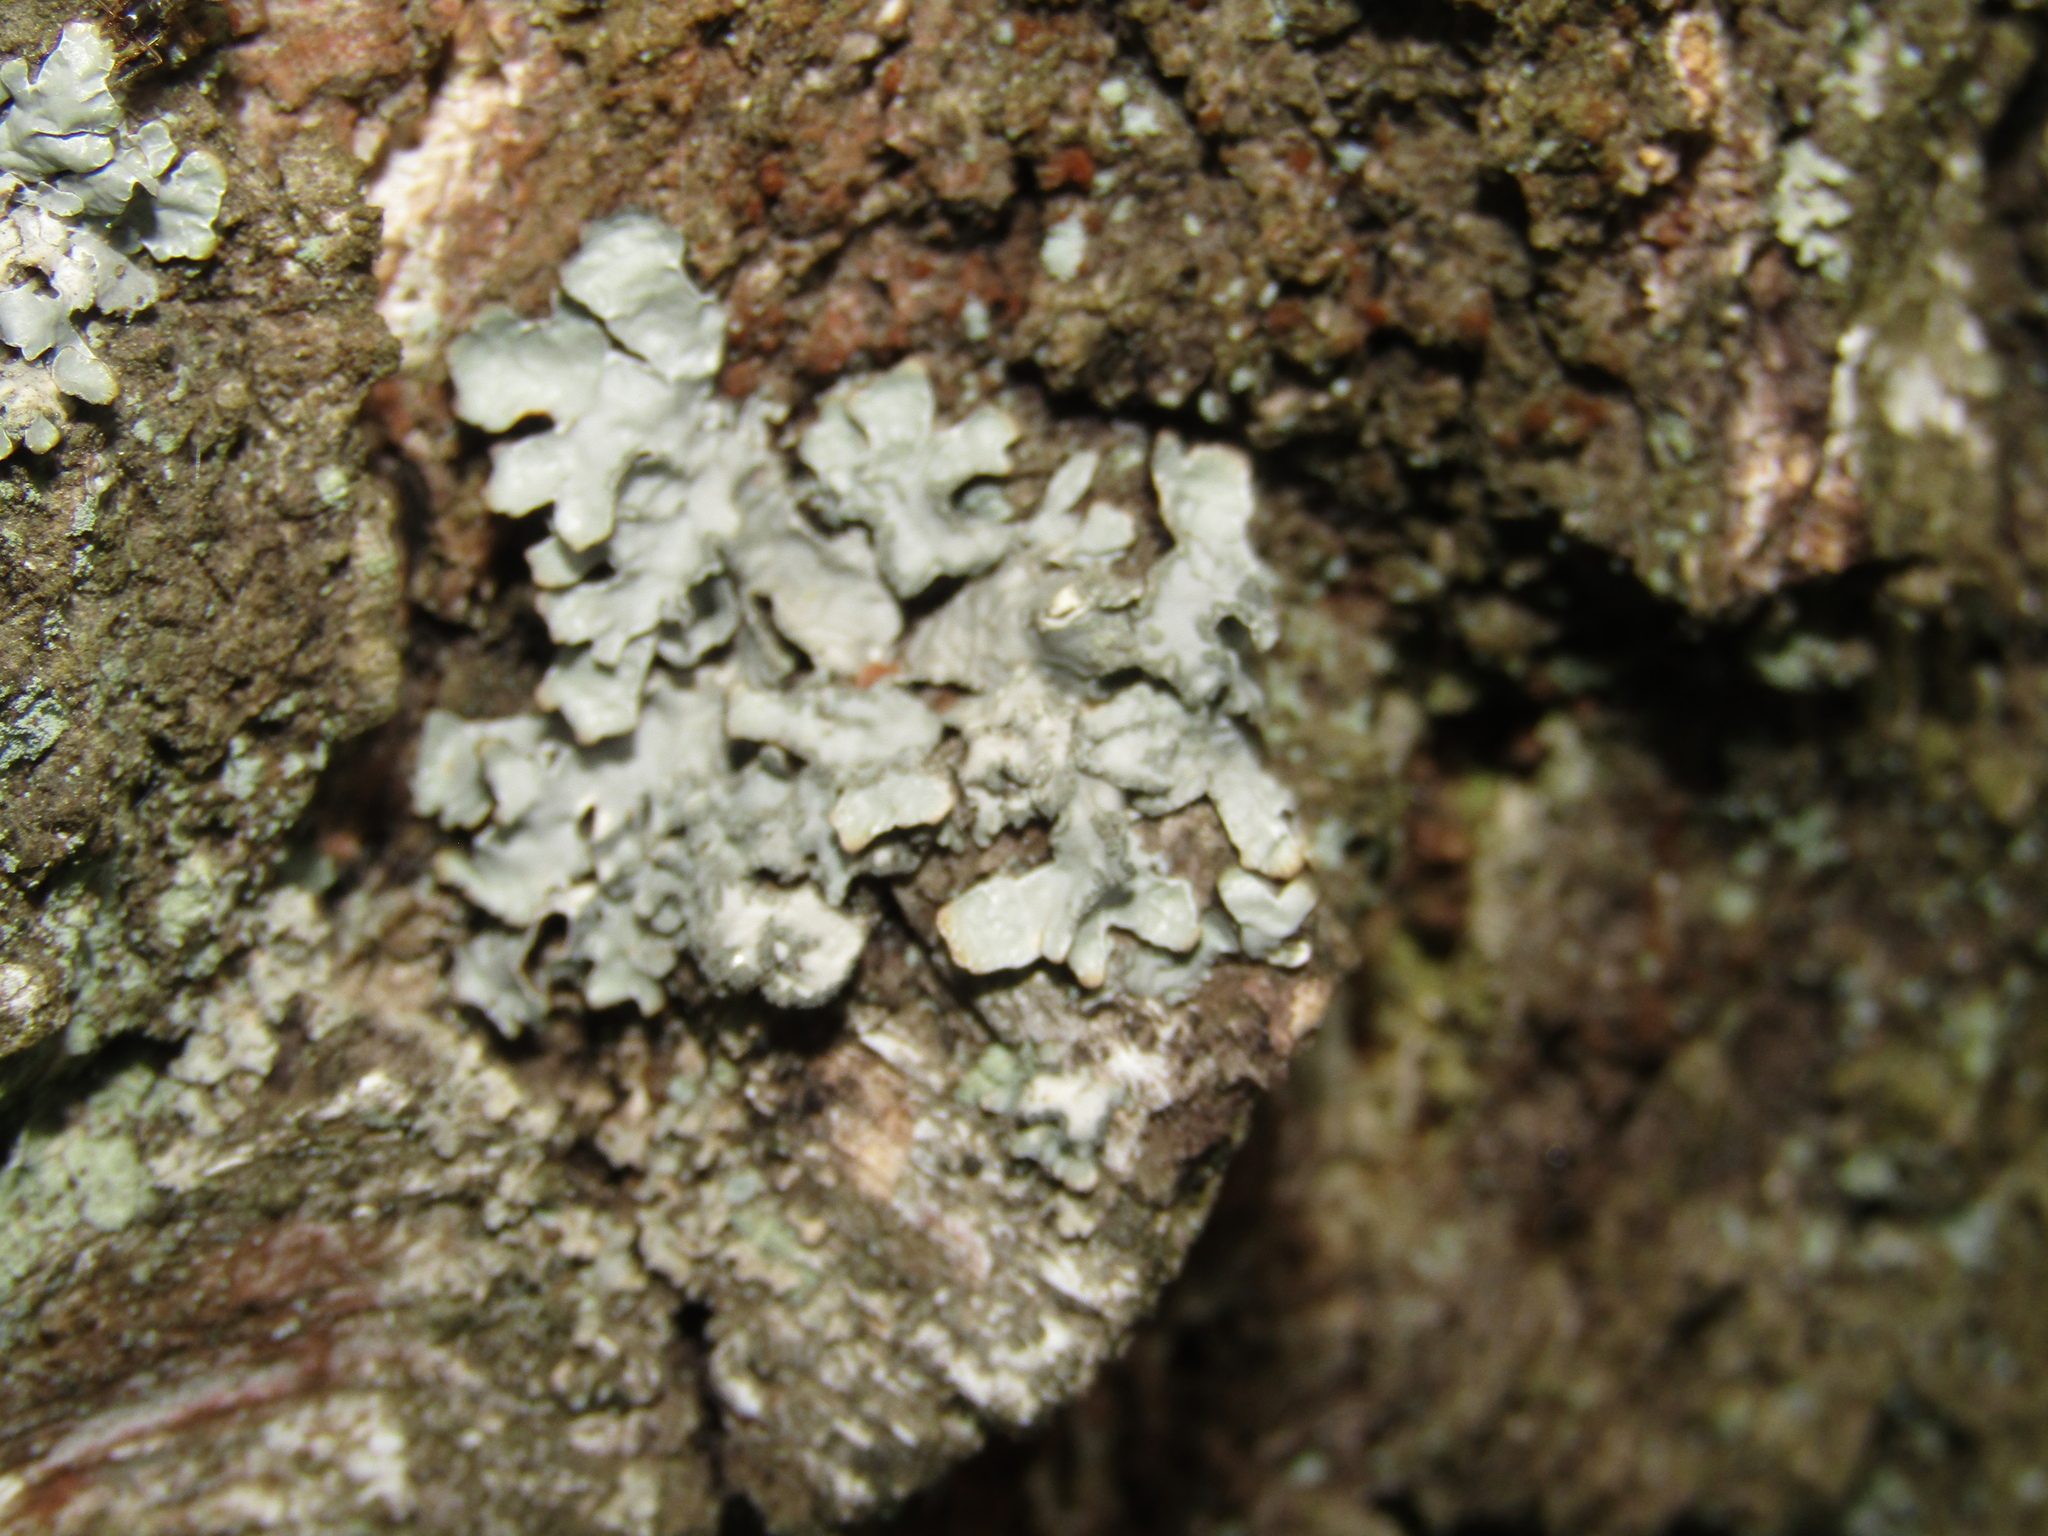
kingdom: Fungi
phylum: Ascomycota
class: Lecanoromycetes
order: Lecanorales
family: Parmeliaceae
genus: Parmelia
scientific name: Parmelia sulcata
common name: Netted shield lichen
